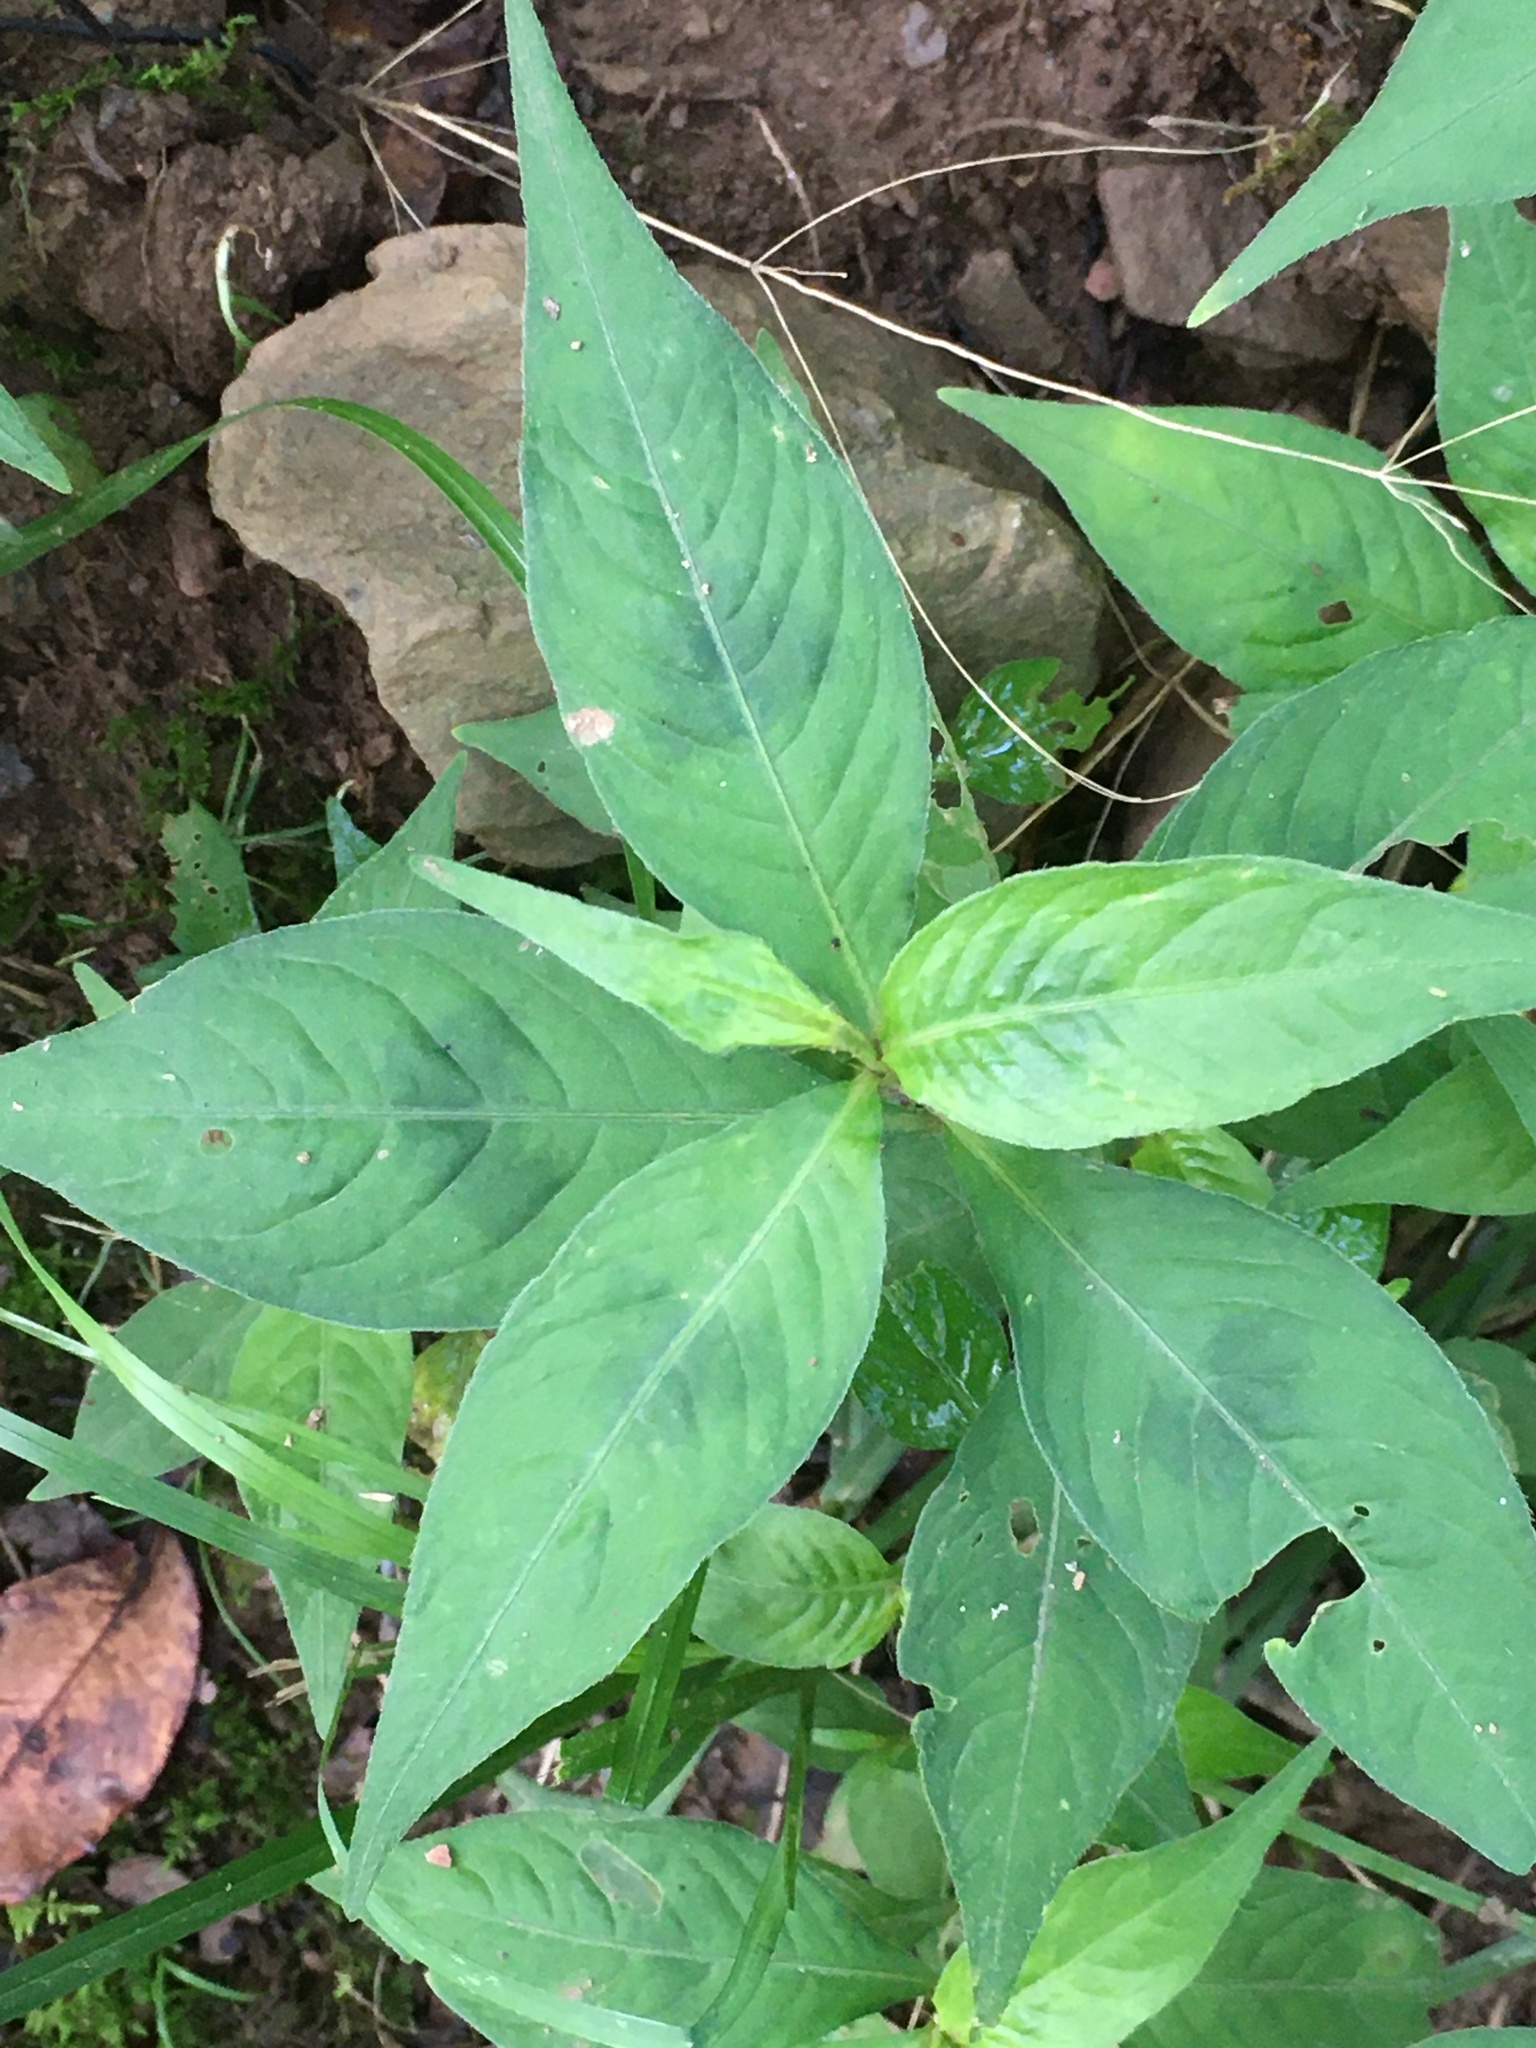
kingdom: Plantae
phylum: Tracheophyta
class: Magnoliopsida
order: Caryophyllales
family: Polygonaceae
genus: Persicaria
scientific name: Persicaria virginiana
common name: Jumpseed
